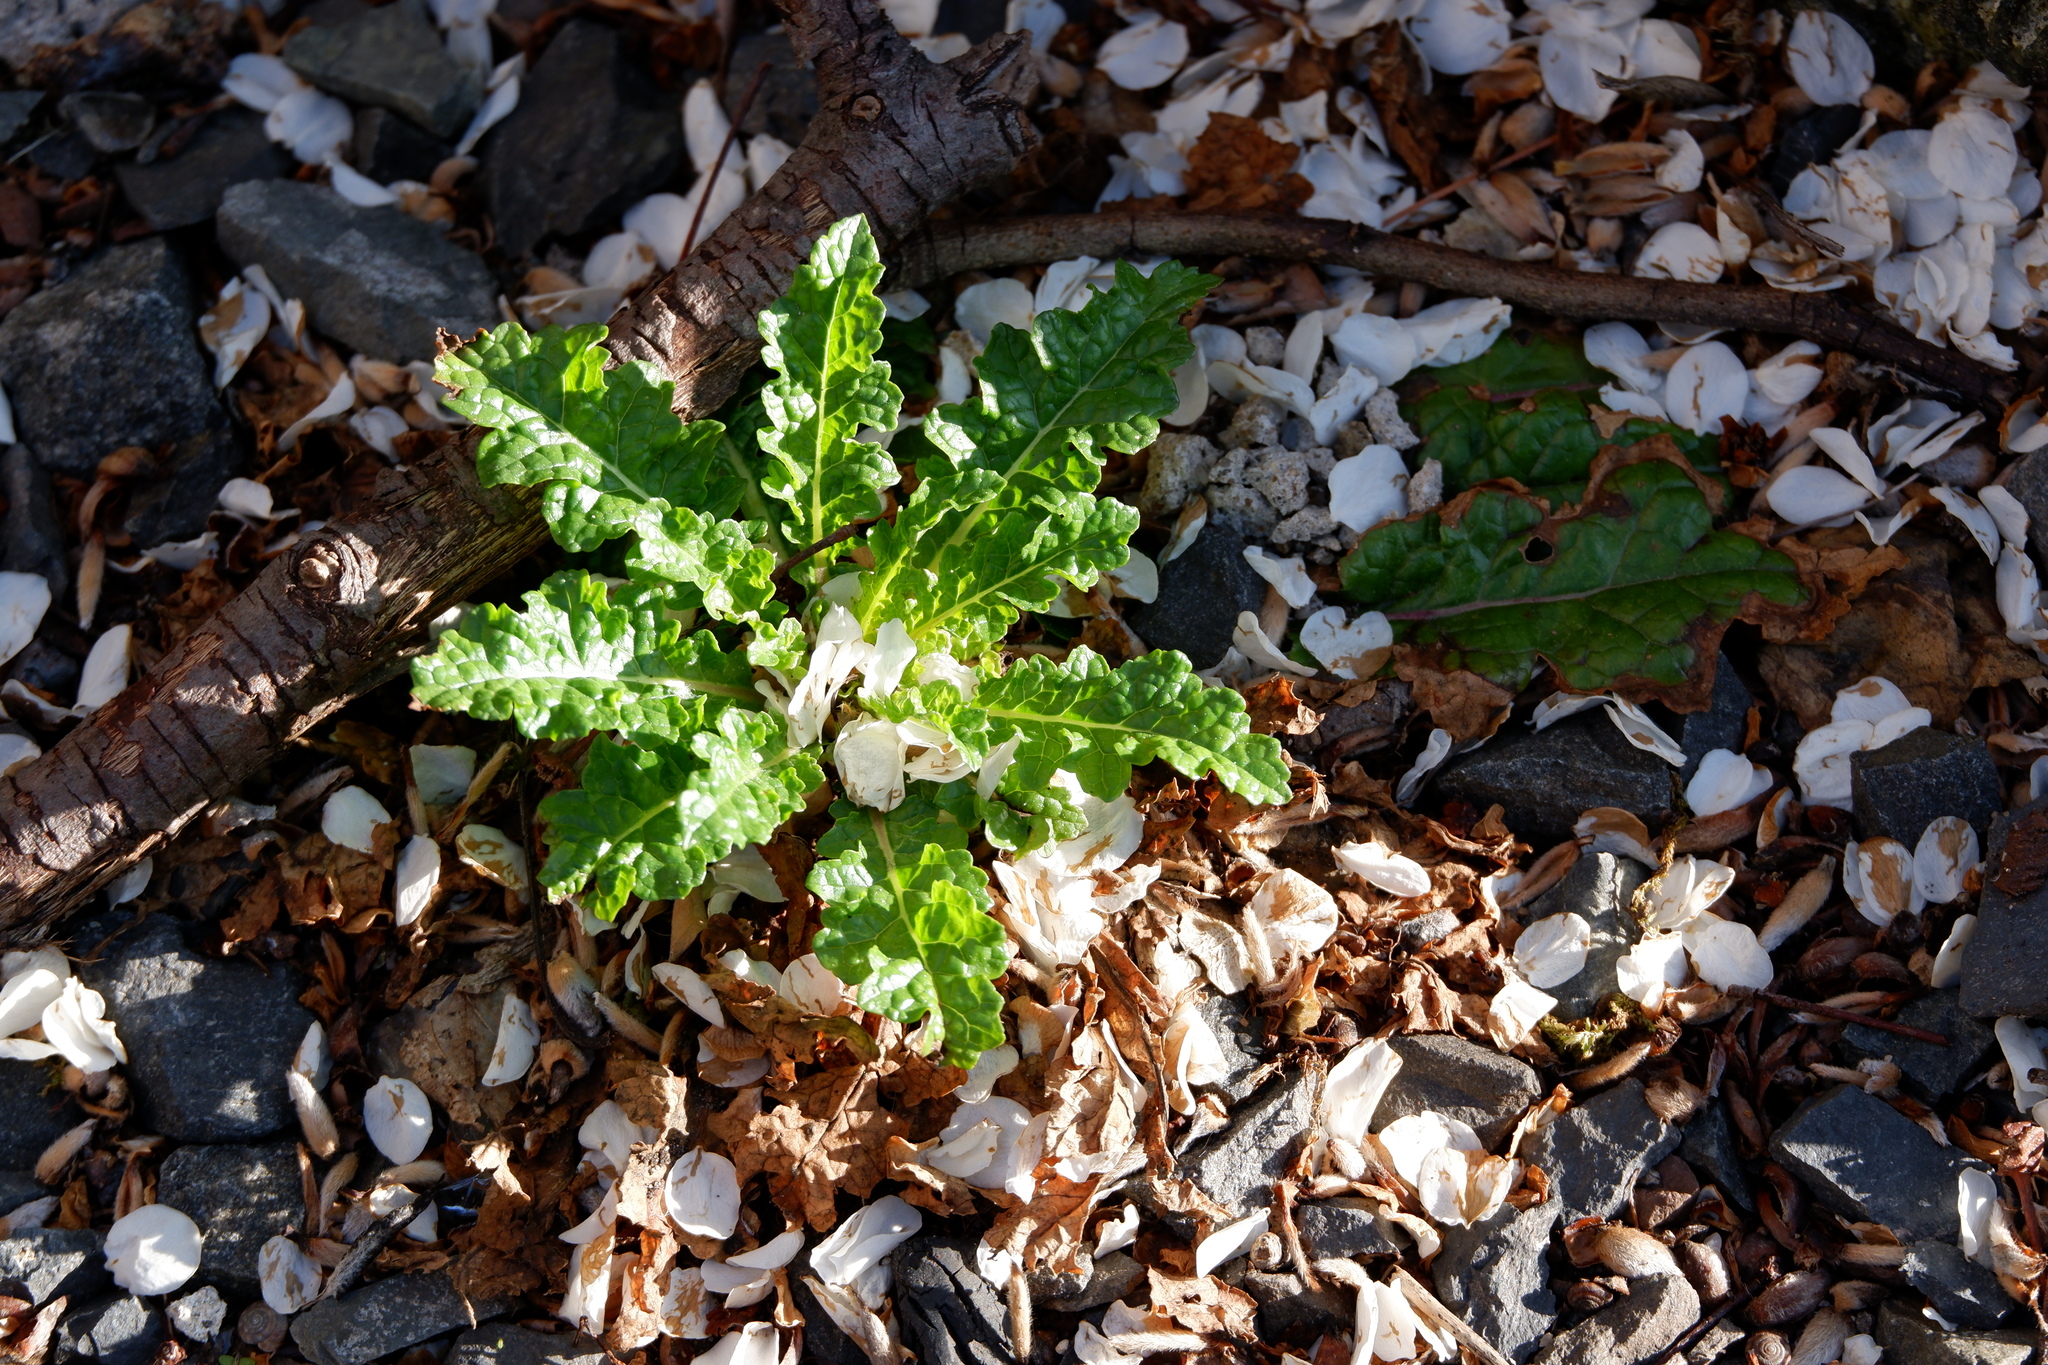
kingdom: Plantae
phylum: Tracheophyta
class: Magnoliopsida
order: Lamiales
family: Scrophulariaceae
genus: Verbascum
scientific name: Verbascum blattaria
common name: Moth mullein
